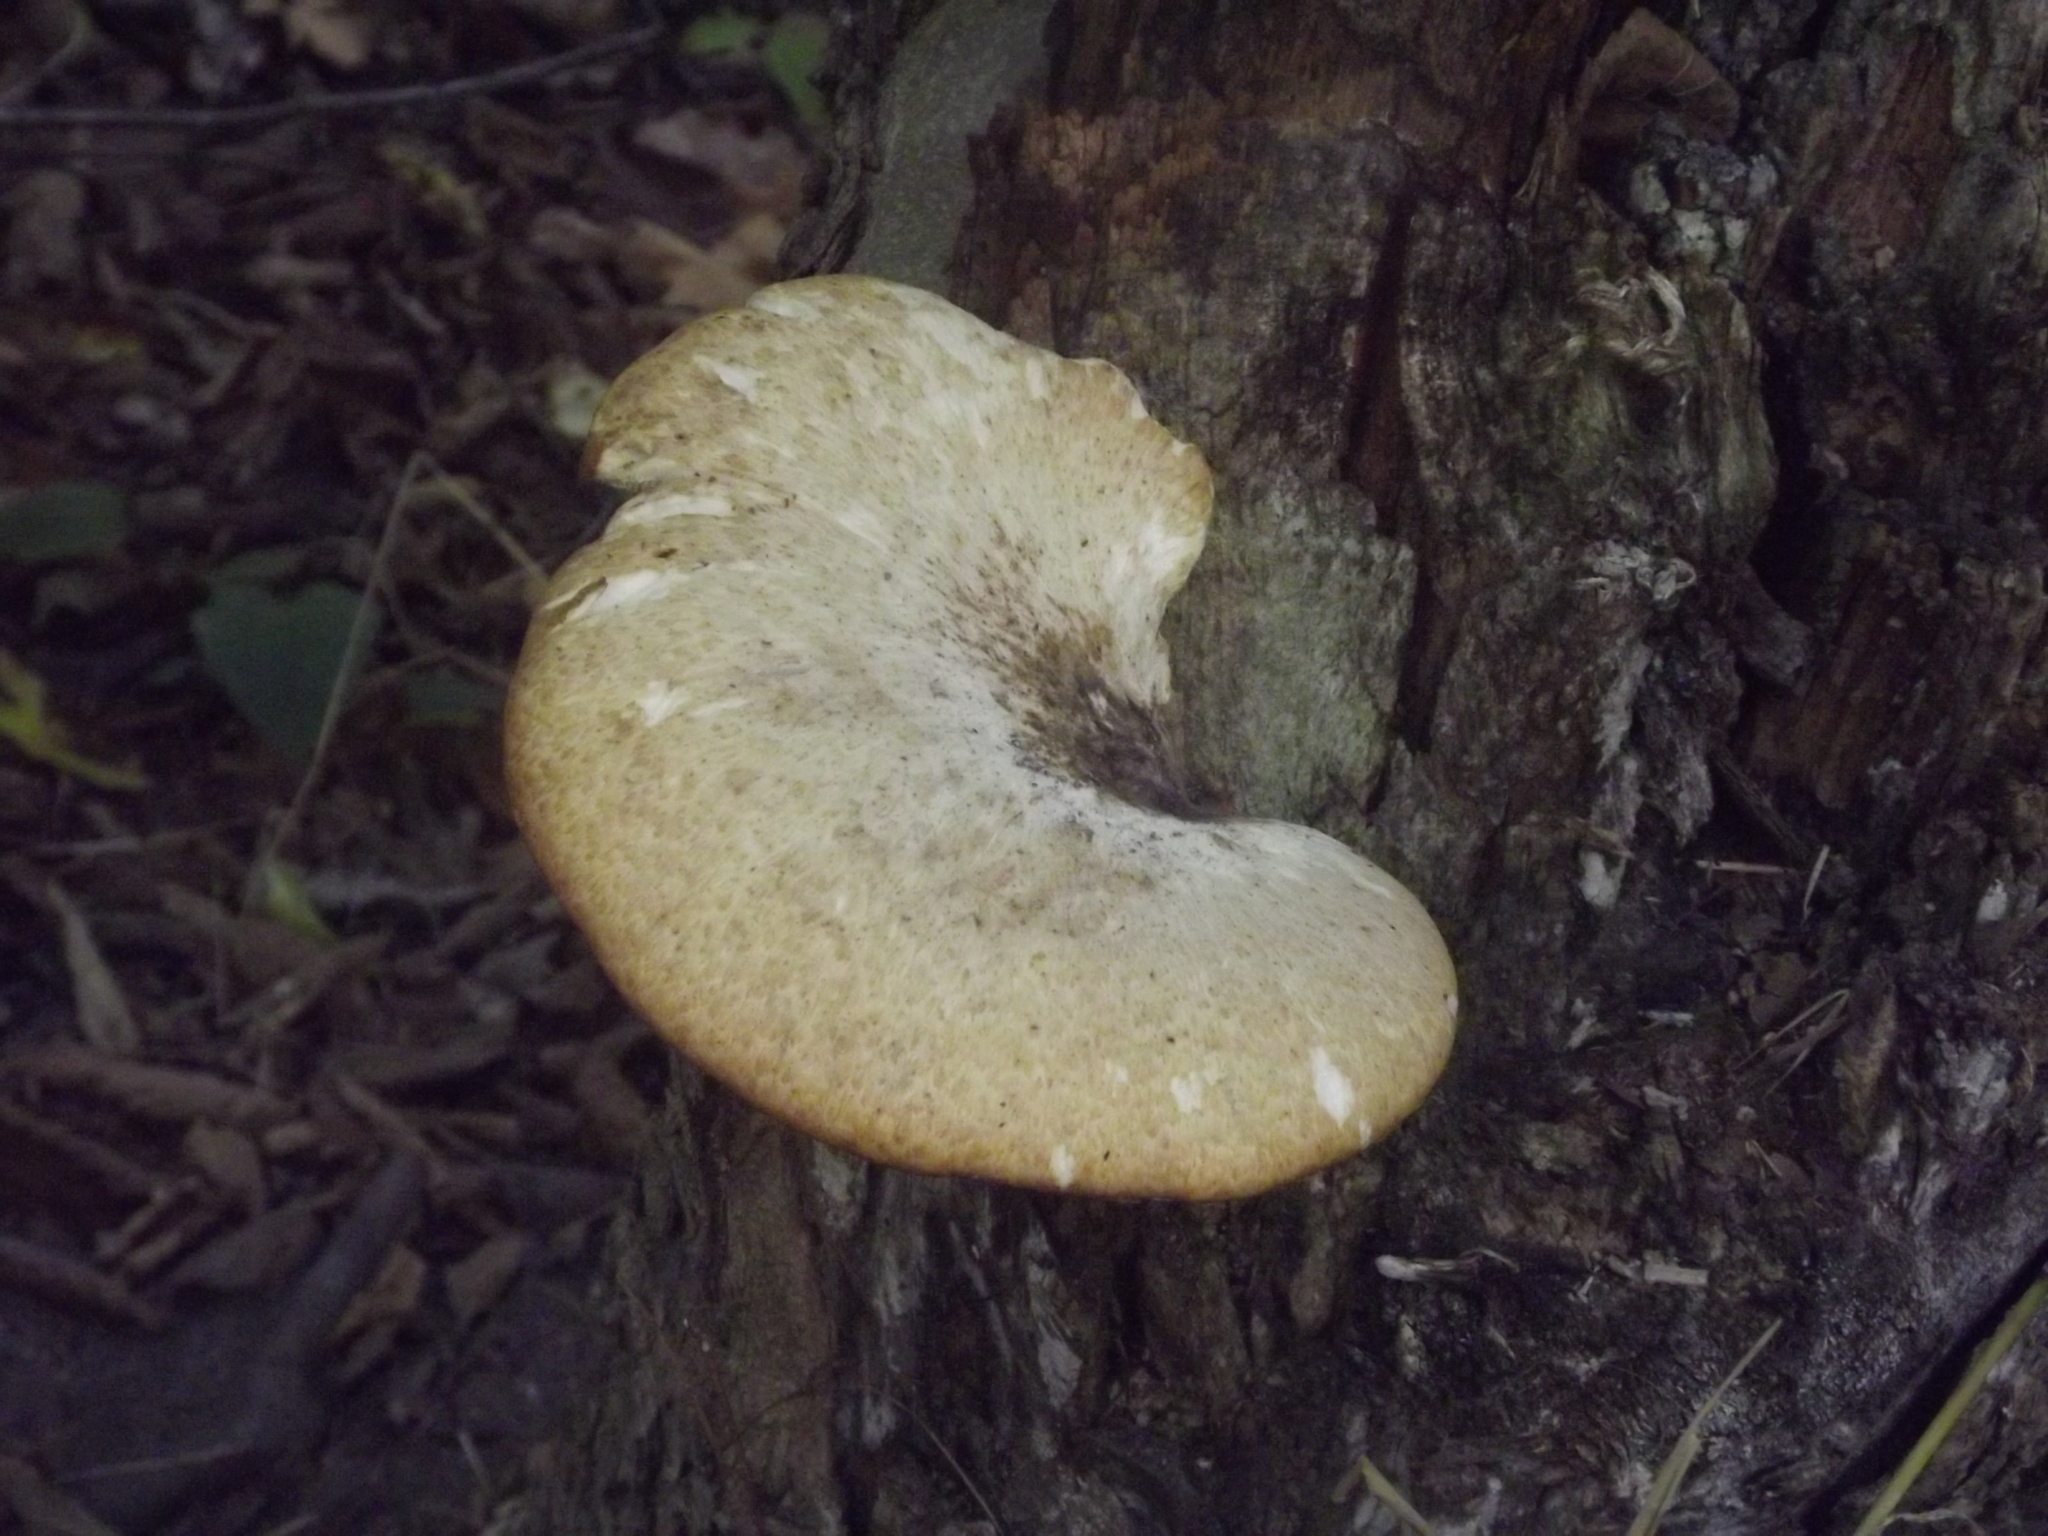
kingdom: Fungi
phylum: Basidiomycota
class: Agaricomycetes
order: Polyporales
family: Polyporaceae
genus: Cerioporus
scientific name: Cerioporus squamosus
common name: Dryad's saddle
